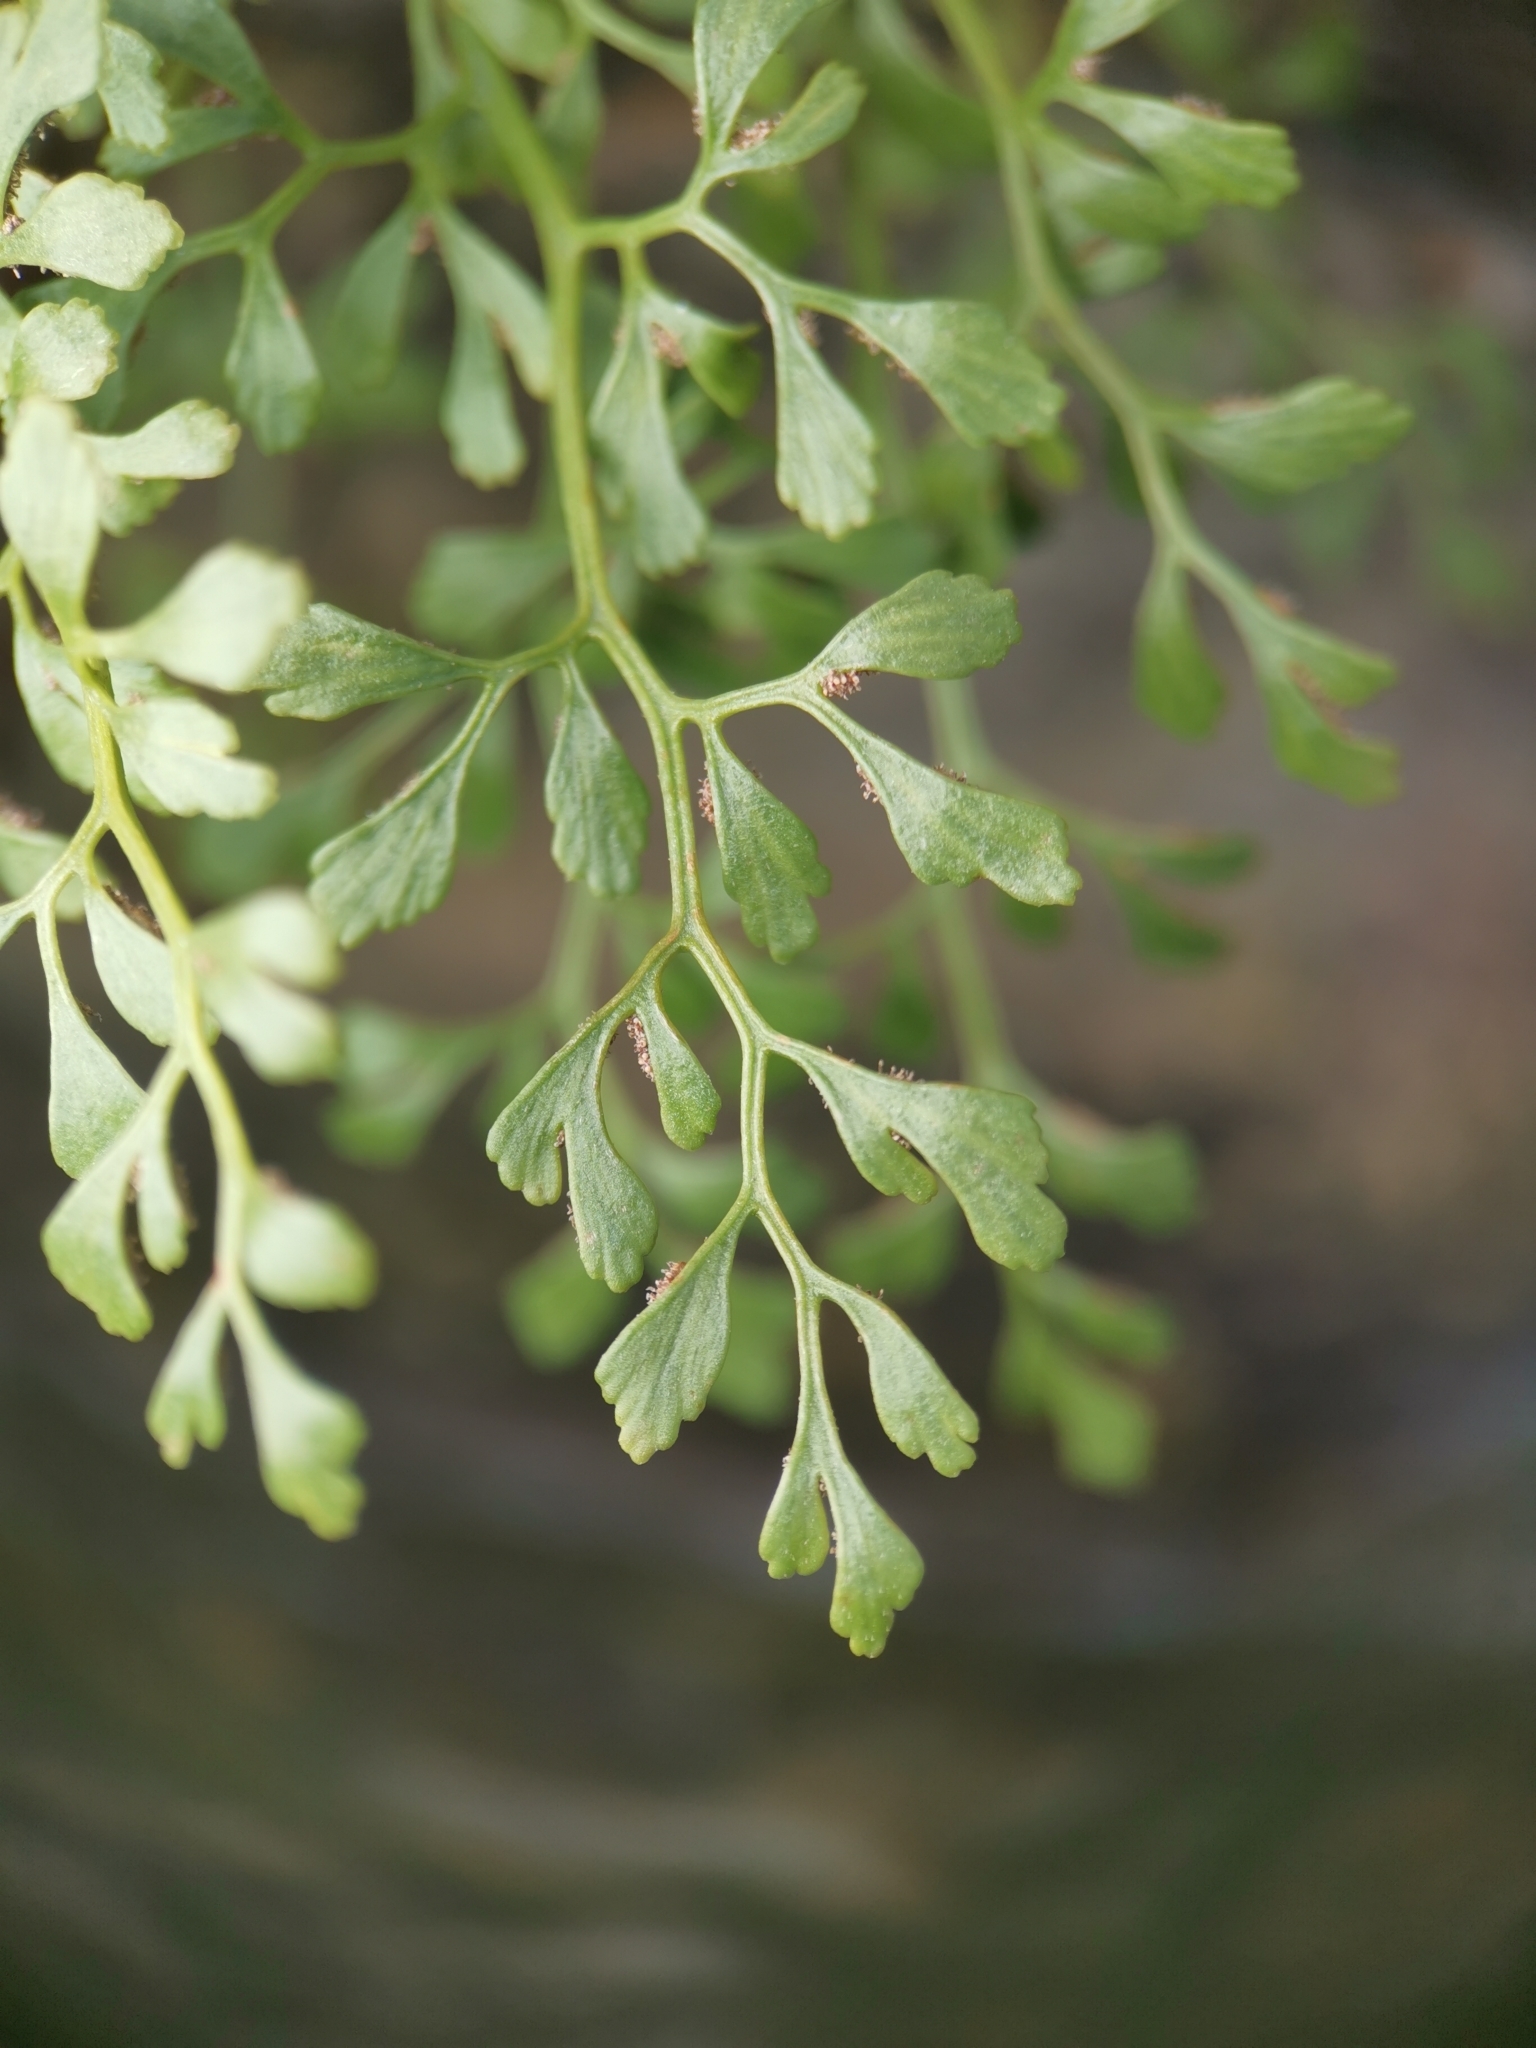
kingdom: Plantae
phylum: Tracheophyta
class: Polypodiopsida
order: Polypodiales
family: Aspleniaceae
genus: Asplenium
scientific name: Asplenium ruta-muraria
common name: Wall-rue
